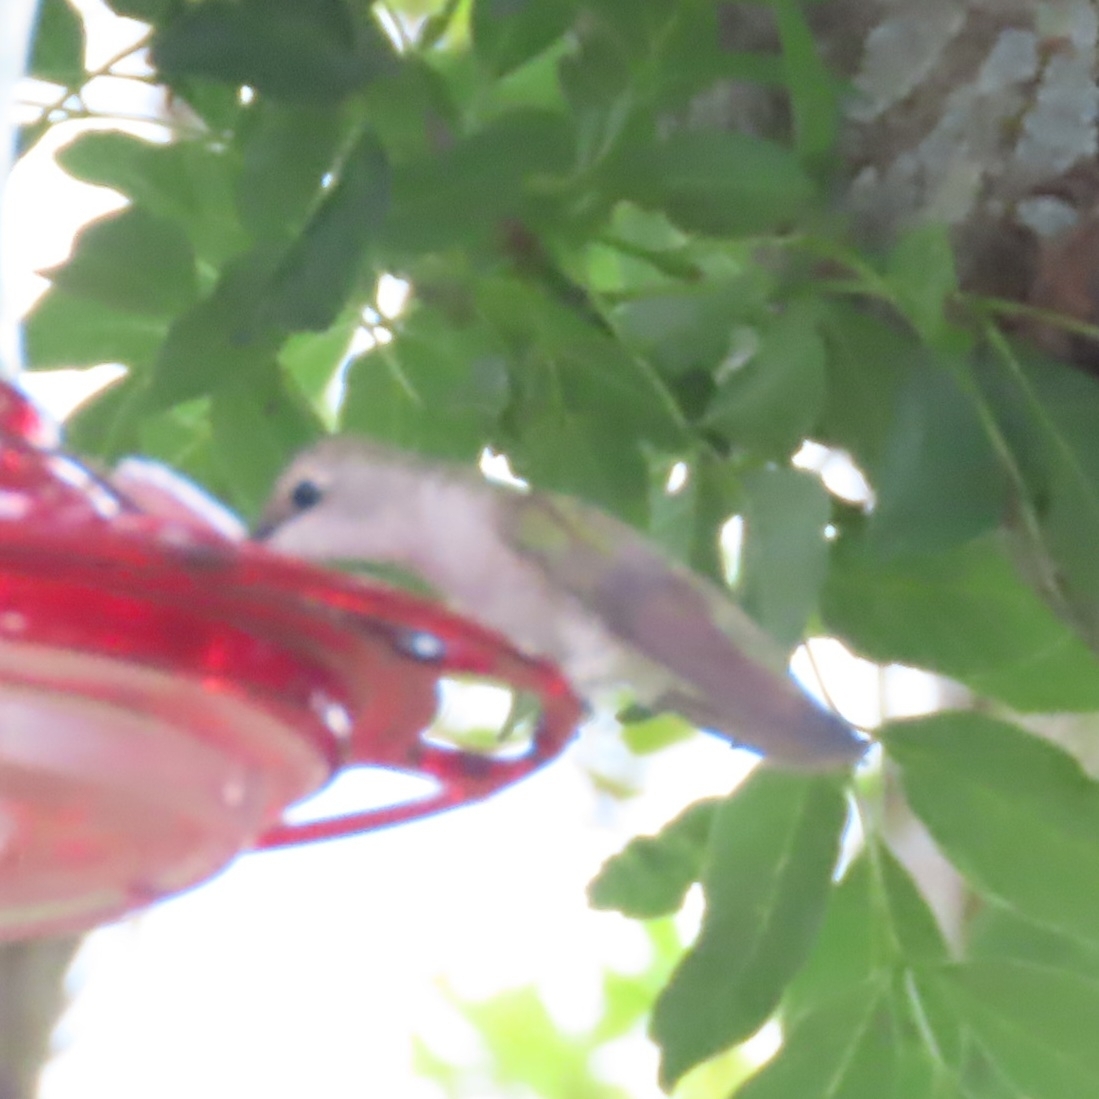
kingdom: Animalia
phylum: Chordata
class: Aves
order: Apodiformes
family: Trochilidae
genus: Archilochus
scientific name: Archilochus alexandri
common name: Black-chinned hummingbird
